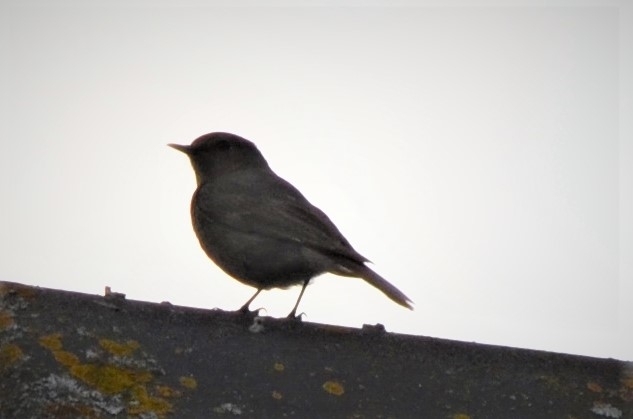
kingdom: Animalia
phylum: Chordata
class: Aves
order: Passeriformes
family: Muscicapidae
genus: Phoenicurus
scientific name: Phoenicurus ochruros
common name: Black redstart
